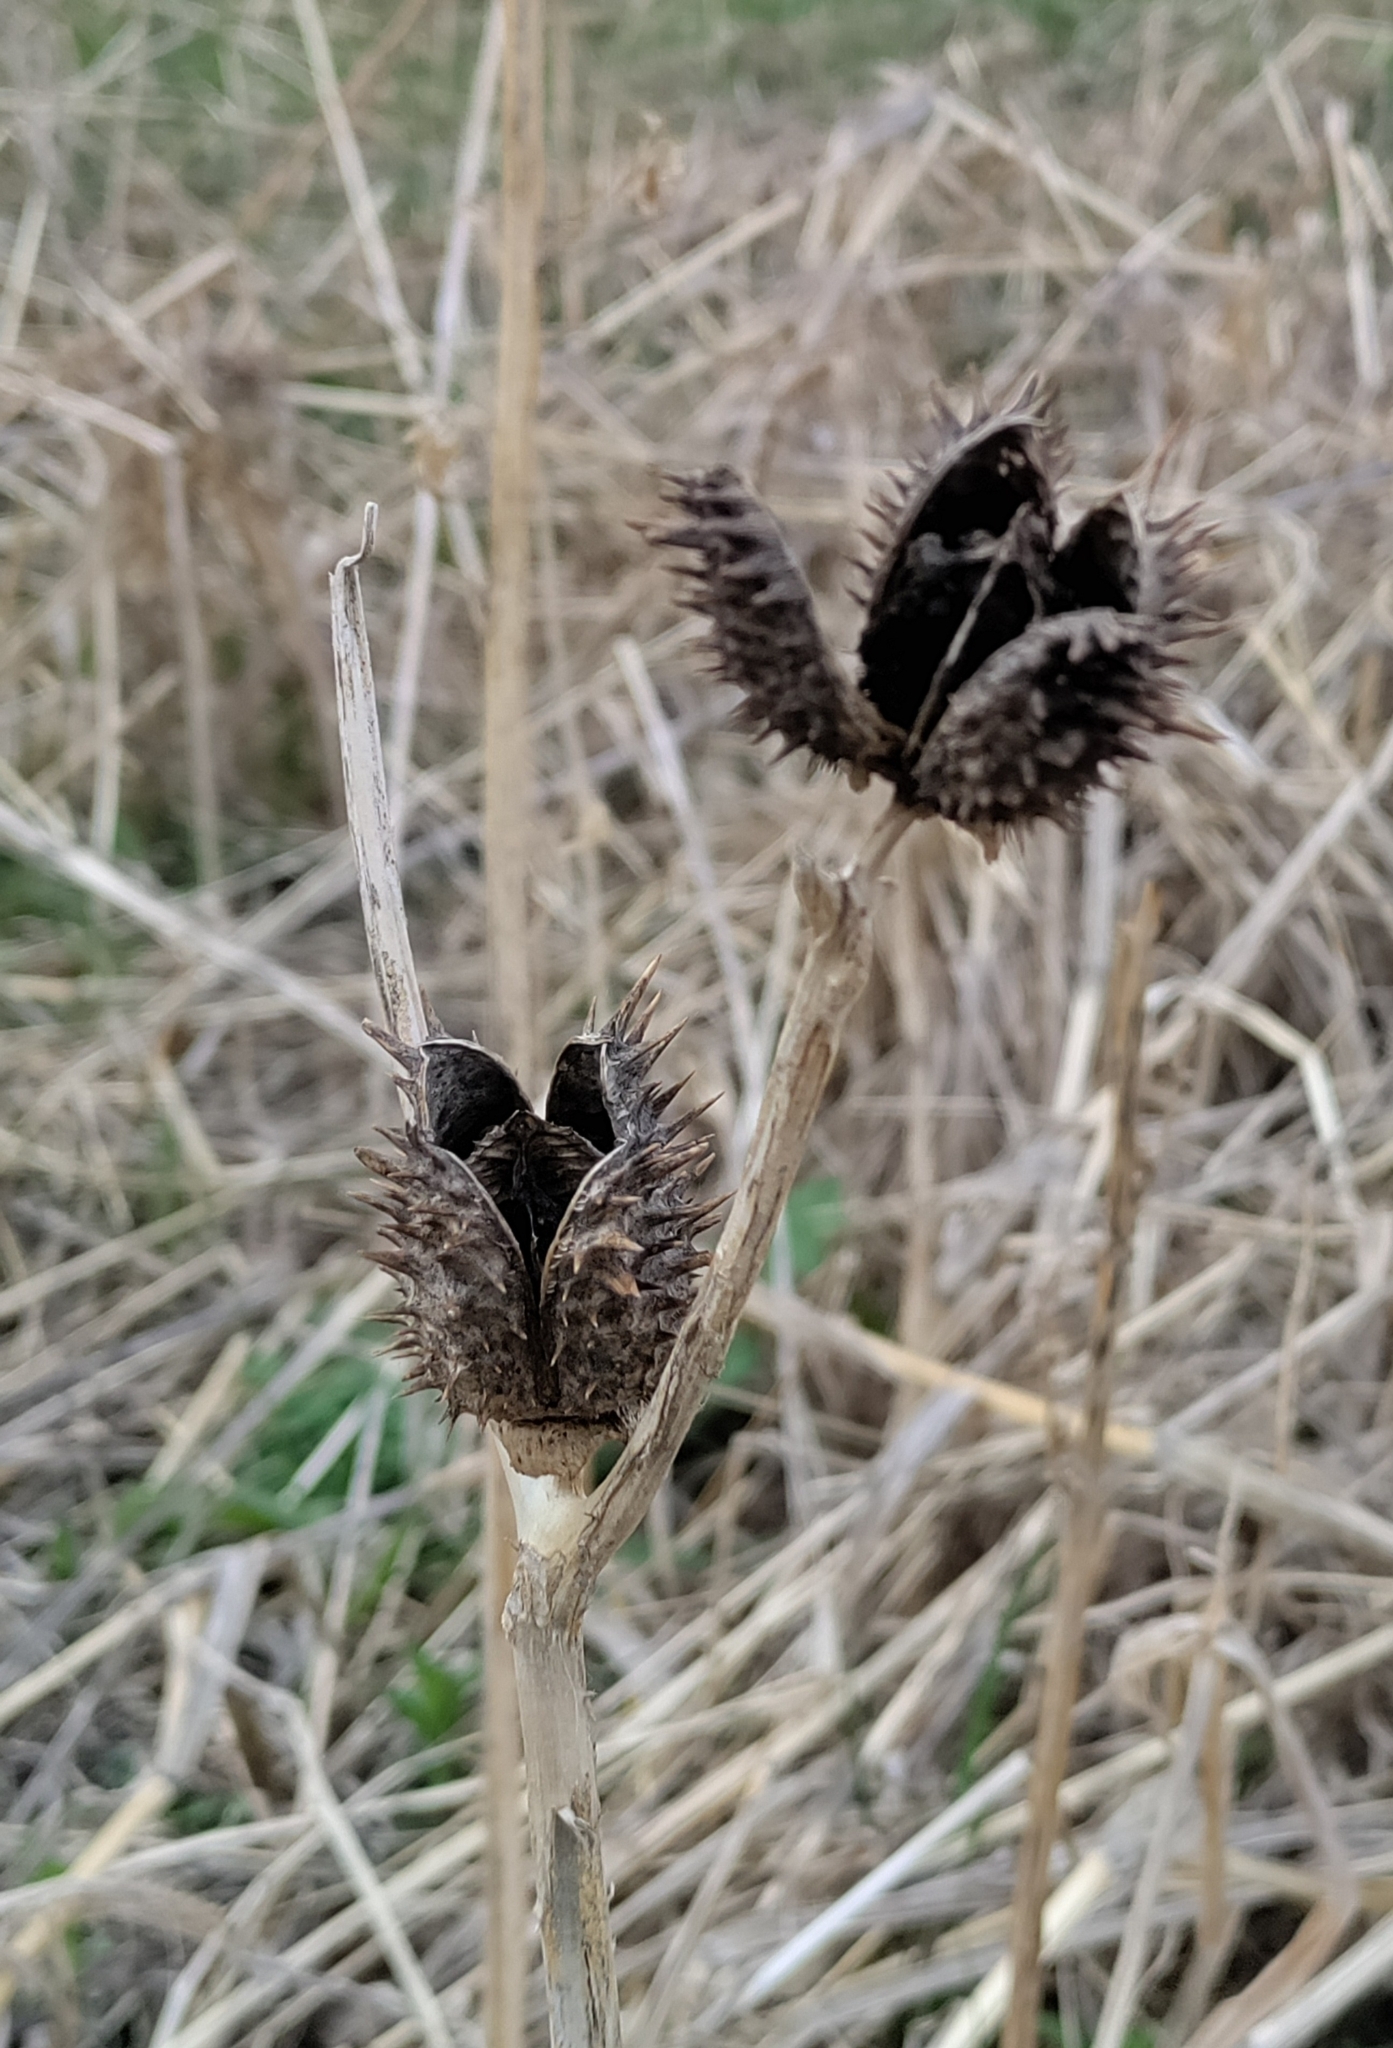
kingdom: Plantae
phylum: Tracheophyta
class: Magnoliopsida
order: Solanales
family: Solanaceae
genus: Datura
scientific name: Datura stramonium
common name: Thorn-apple
